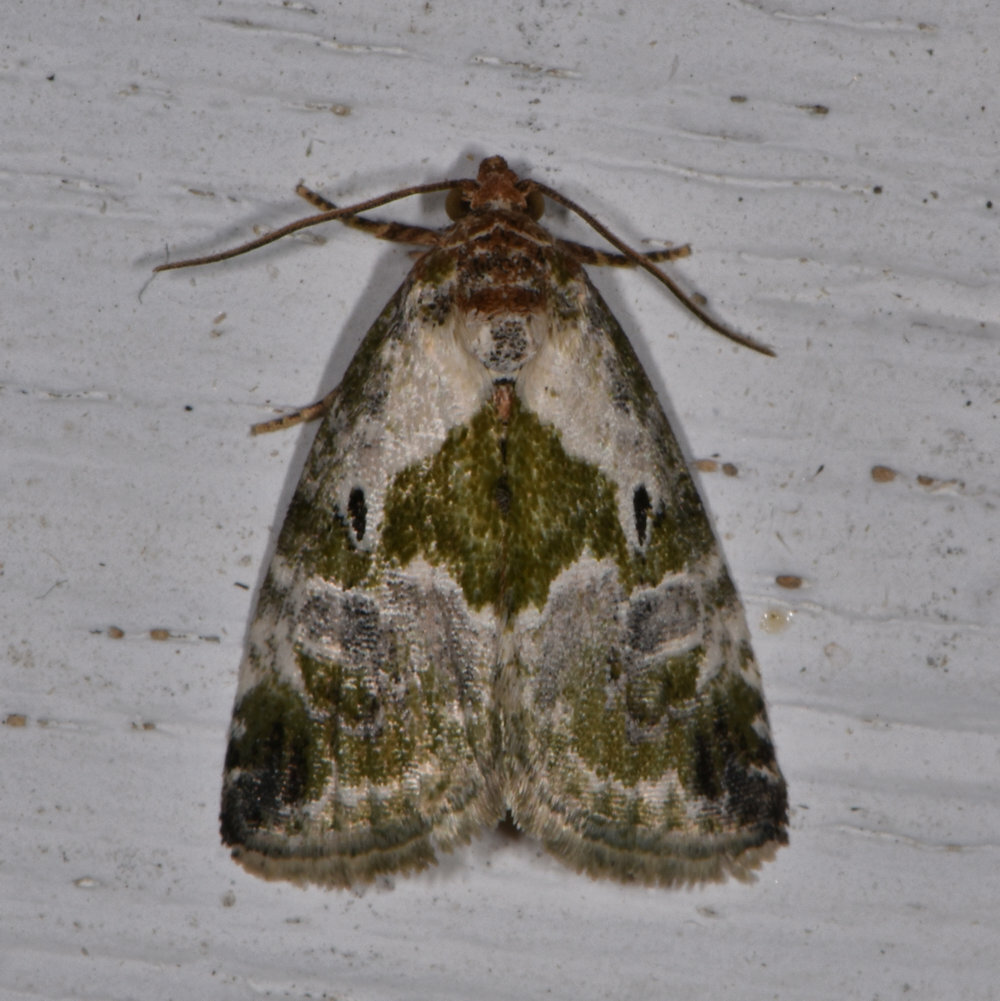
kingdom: Animalia
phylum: Arthropoda
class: Insecta
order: Lepidoptera
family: Noctuidae
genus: Maliattha
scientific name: Maliattha synochitis
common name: Black-dotted glyph
